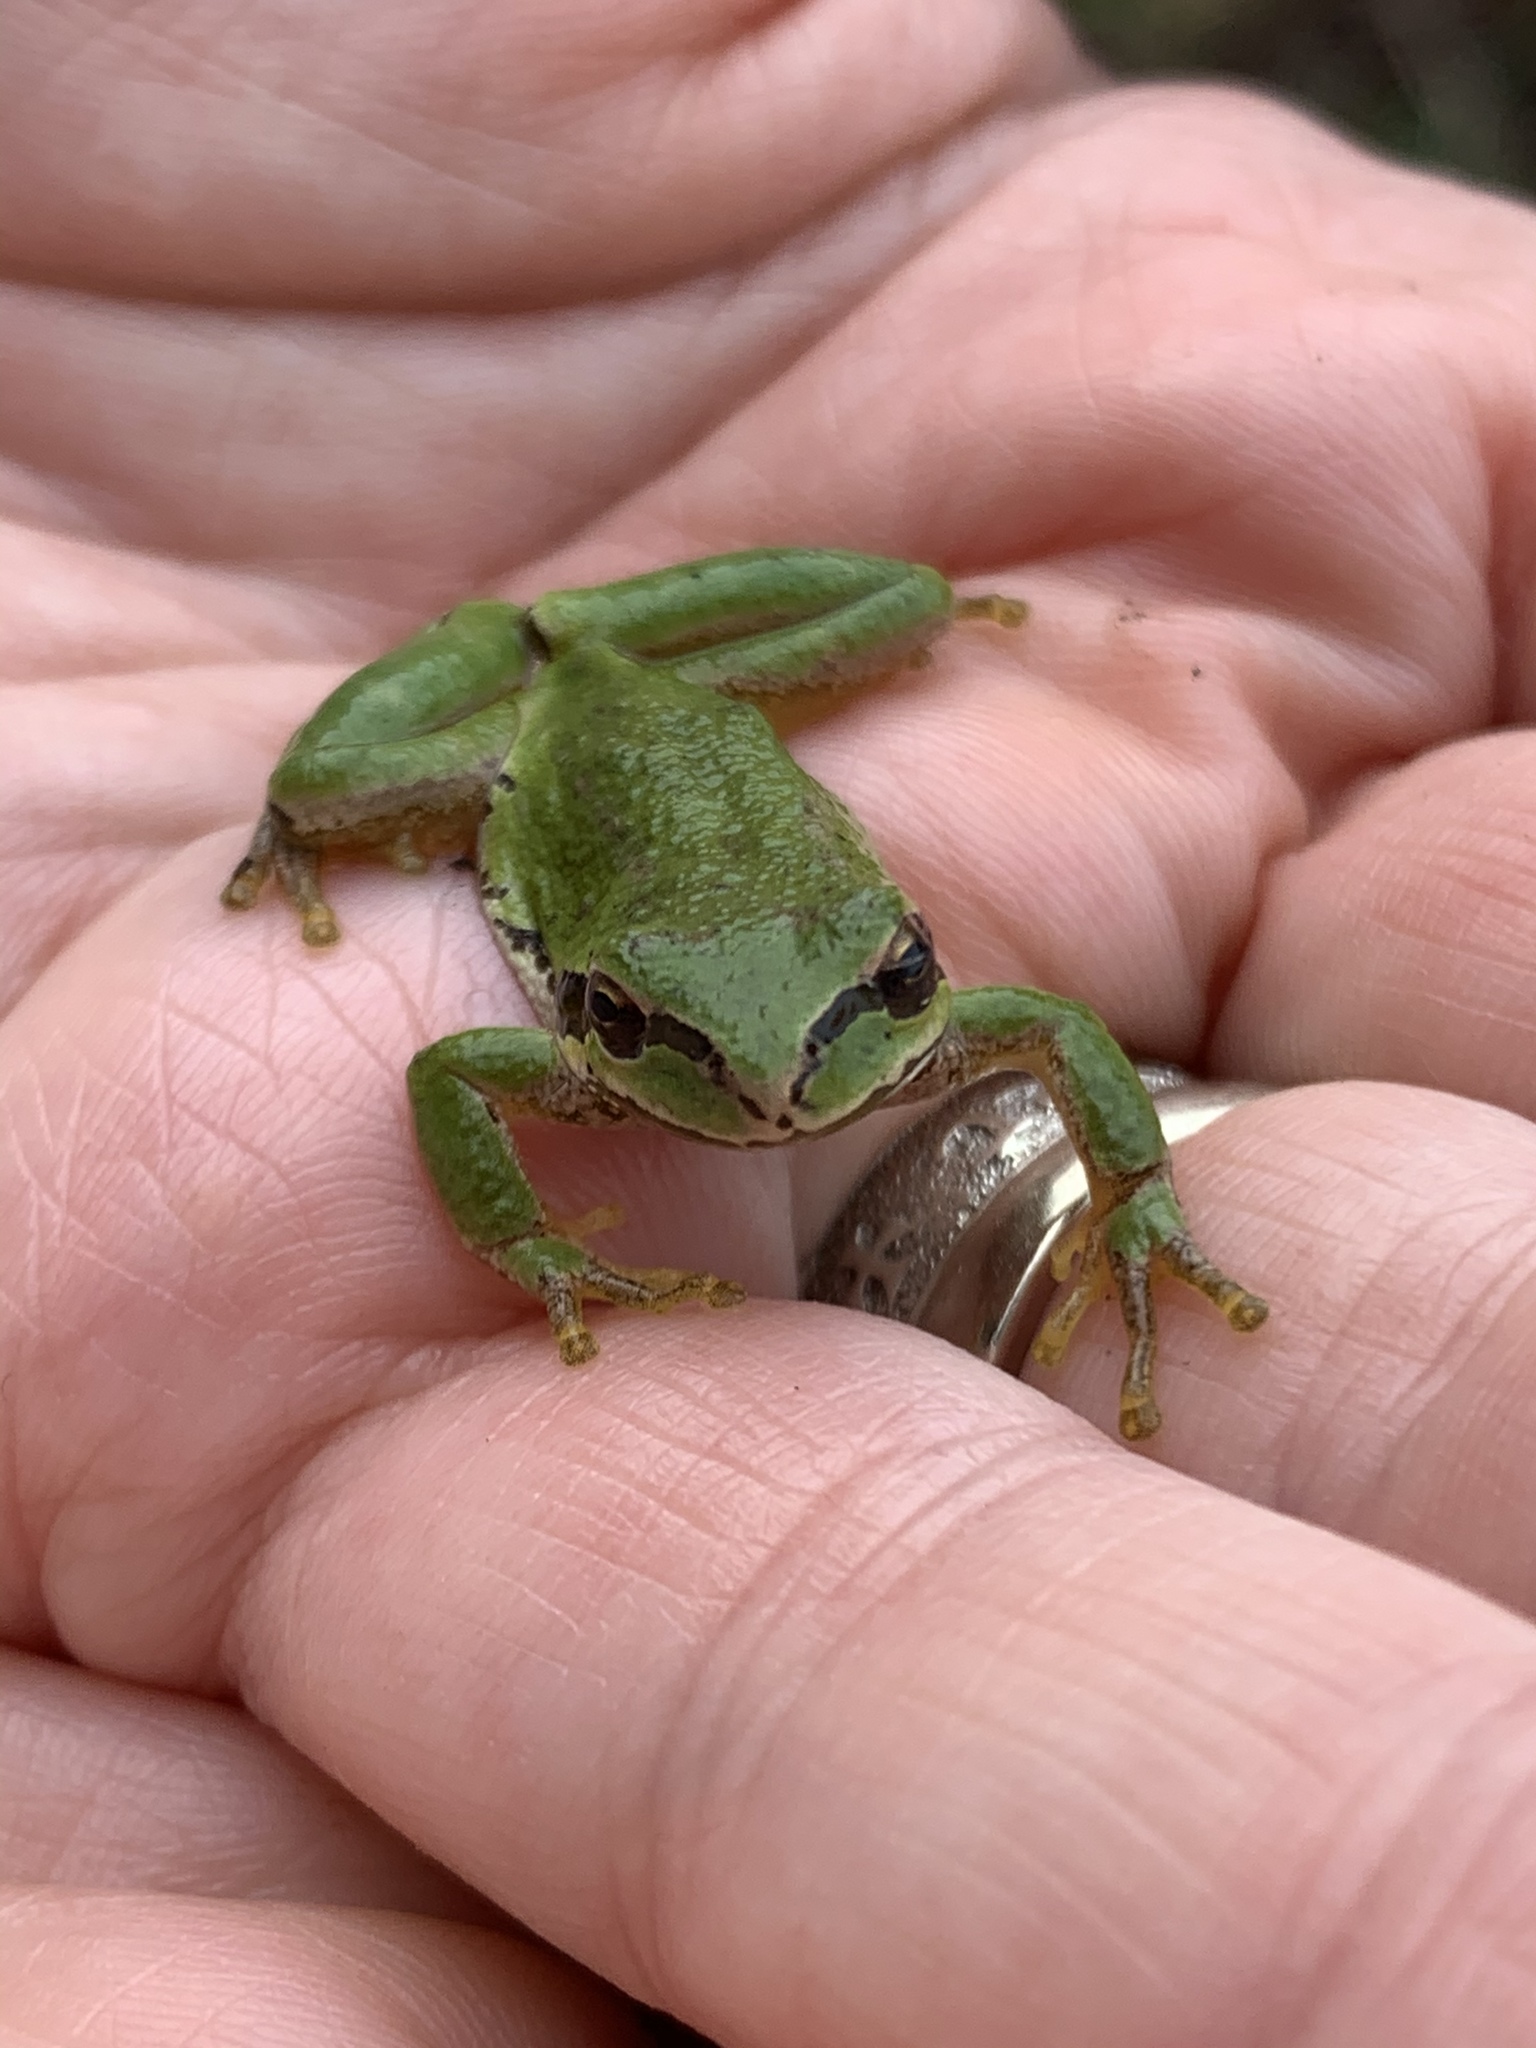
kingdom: Animalia
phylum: Chordata
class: Amphibia
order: Anura
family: Hylidae
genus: Pseudacris
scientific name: Pseudacris regilla
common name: Pacific chorus frog
